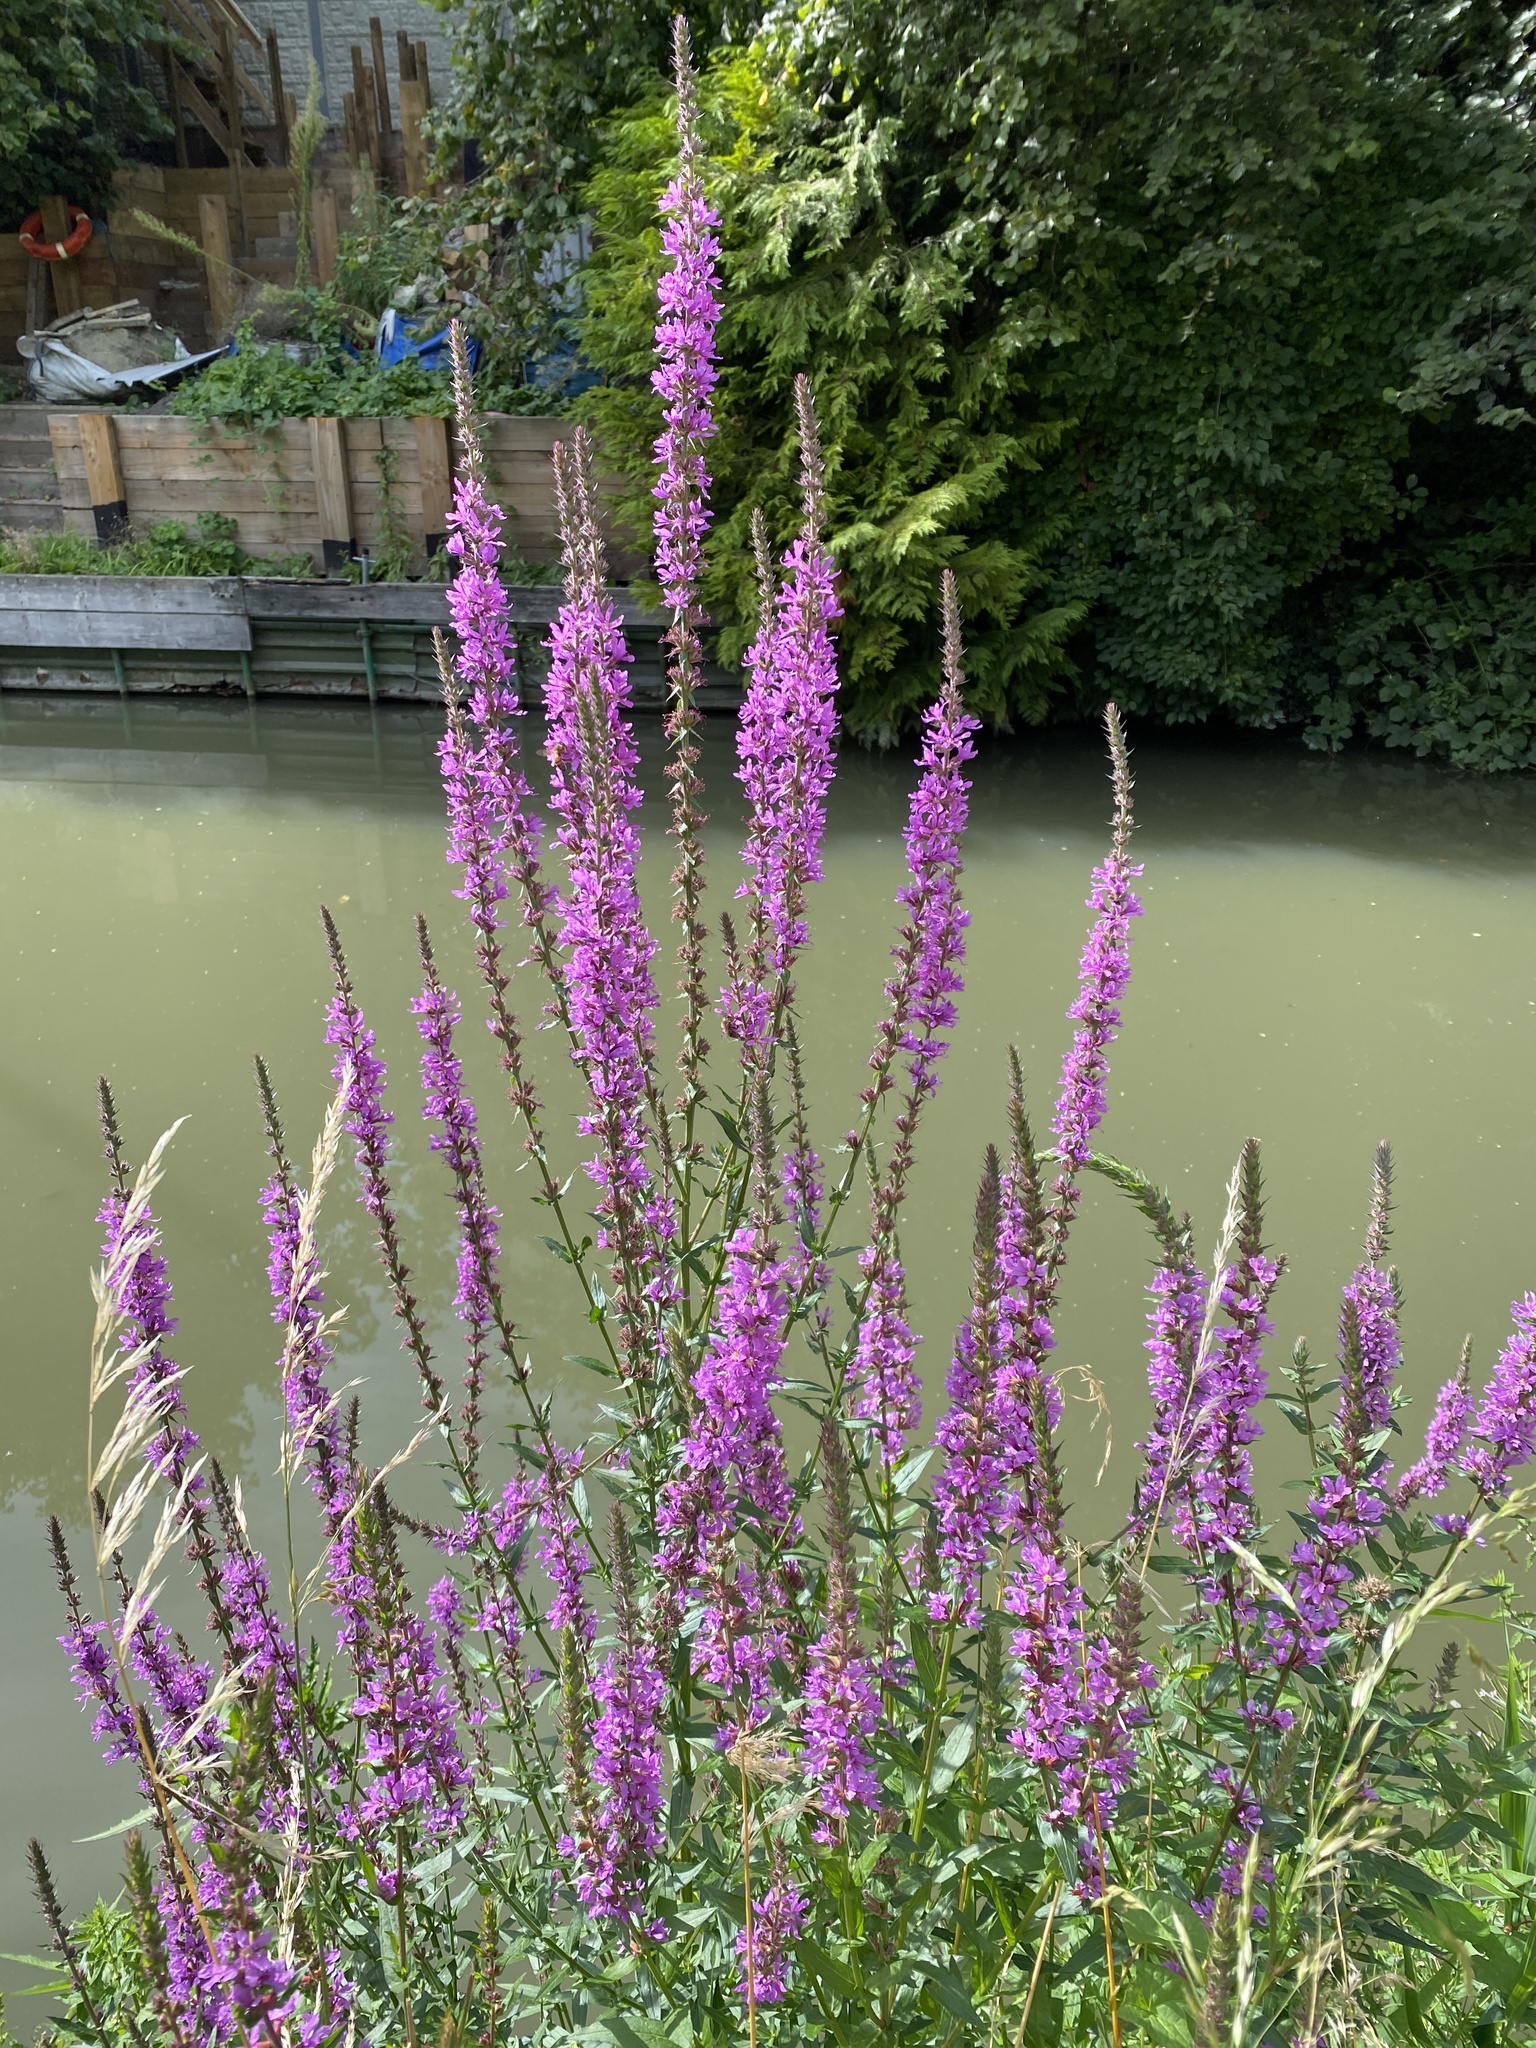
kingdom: Plantae
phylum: Tracheophyta
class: Magnoliopsida
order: Myrtales
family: Lythraceae
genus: Lythrum
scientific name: Lythrum salicaria
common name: Purple loosestrife
